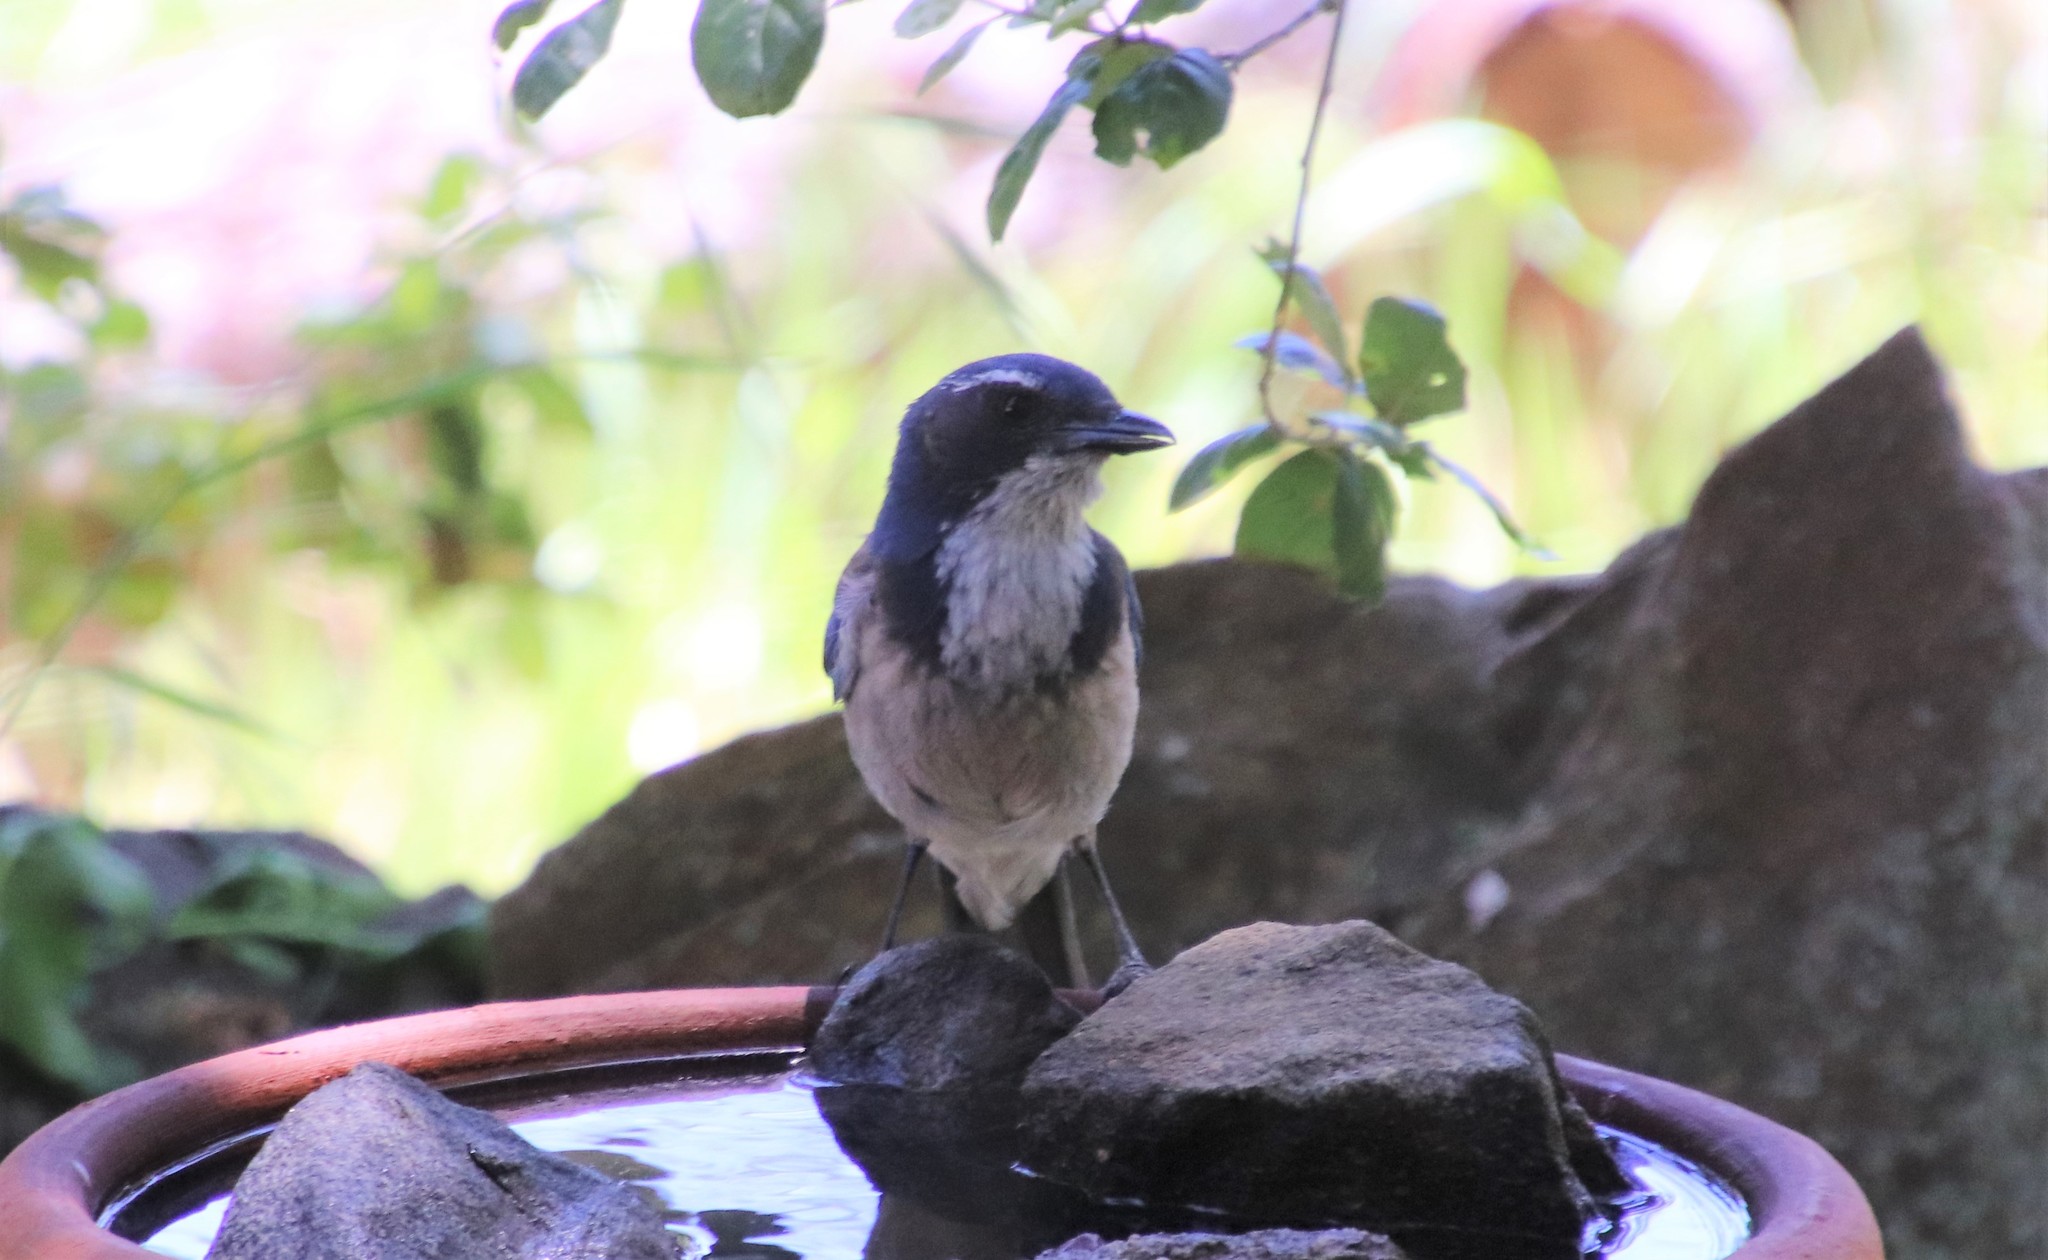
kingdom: Animalia
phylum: Chordata
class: Aves
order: Passeriformes
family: Corvidae
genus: Aphelocoma
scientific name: Aphelocoma californica
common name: California scrub-jay
